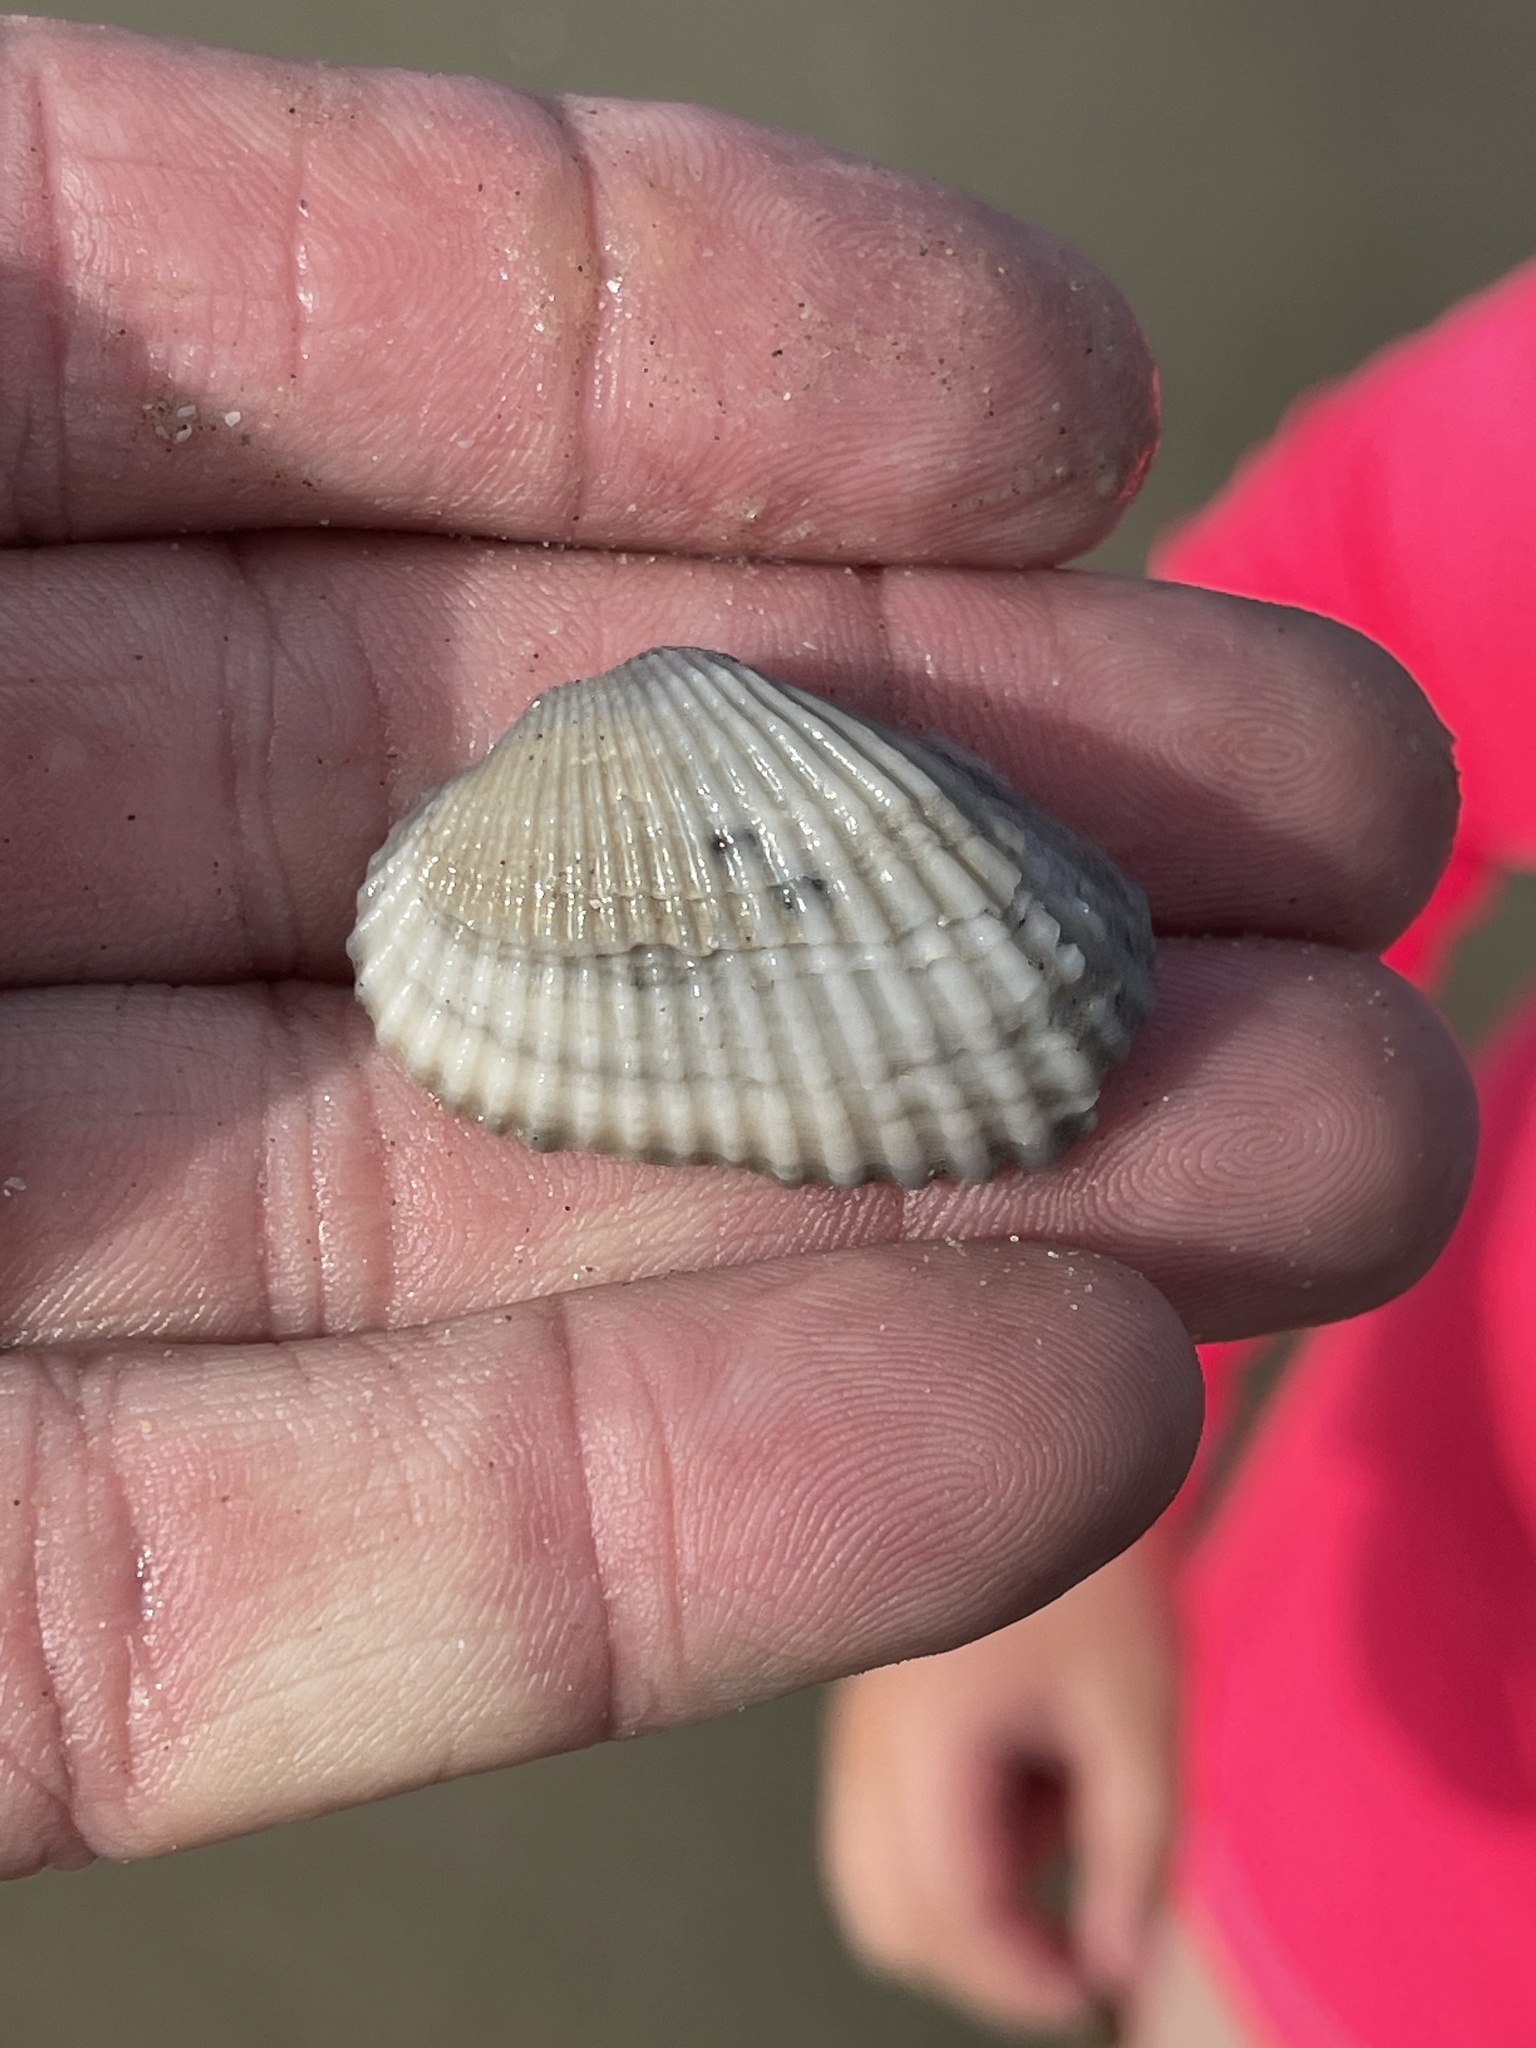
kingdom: Animalia
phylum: Mollusca
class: Bivalvia
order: Arcida
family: Arcidae
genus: Anadara
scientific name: Anadara transversa
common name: Transverse ark
